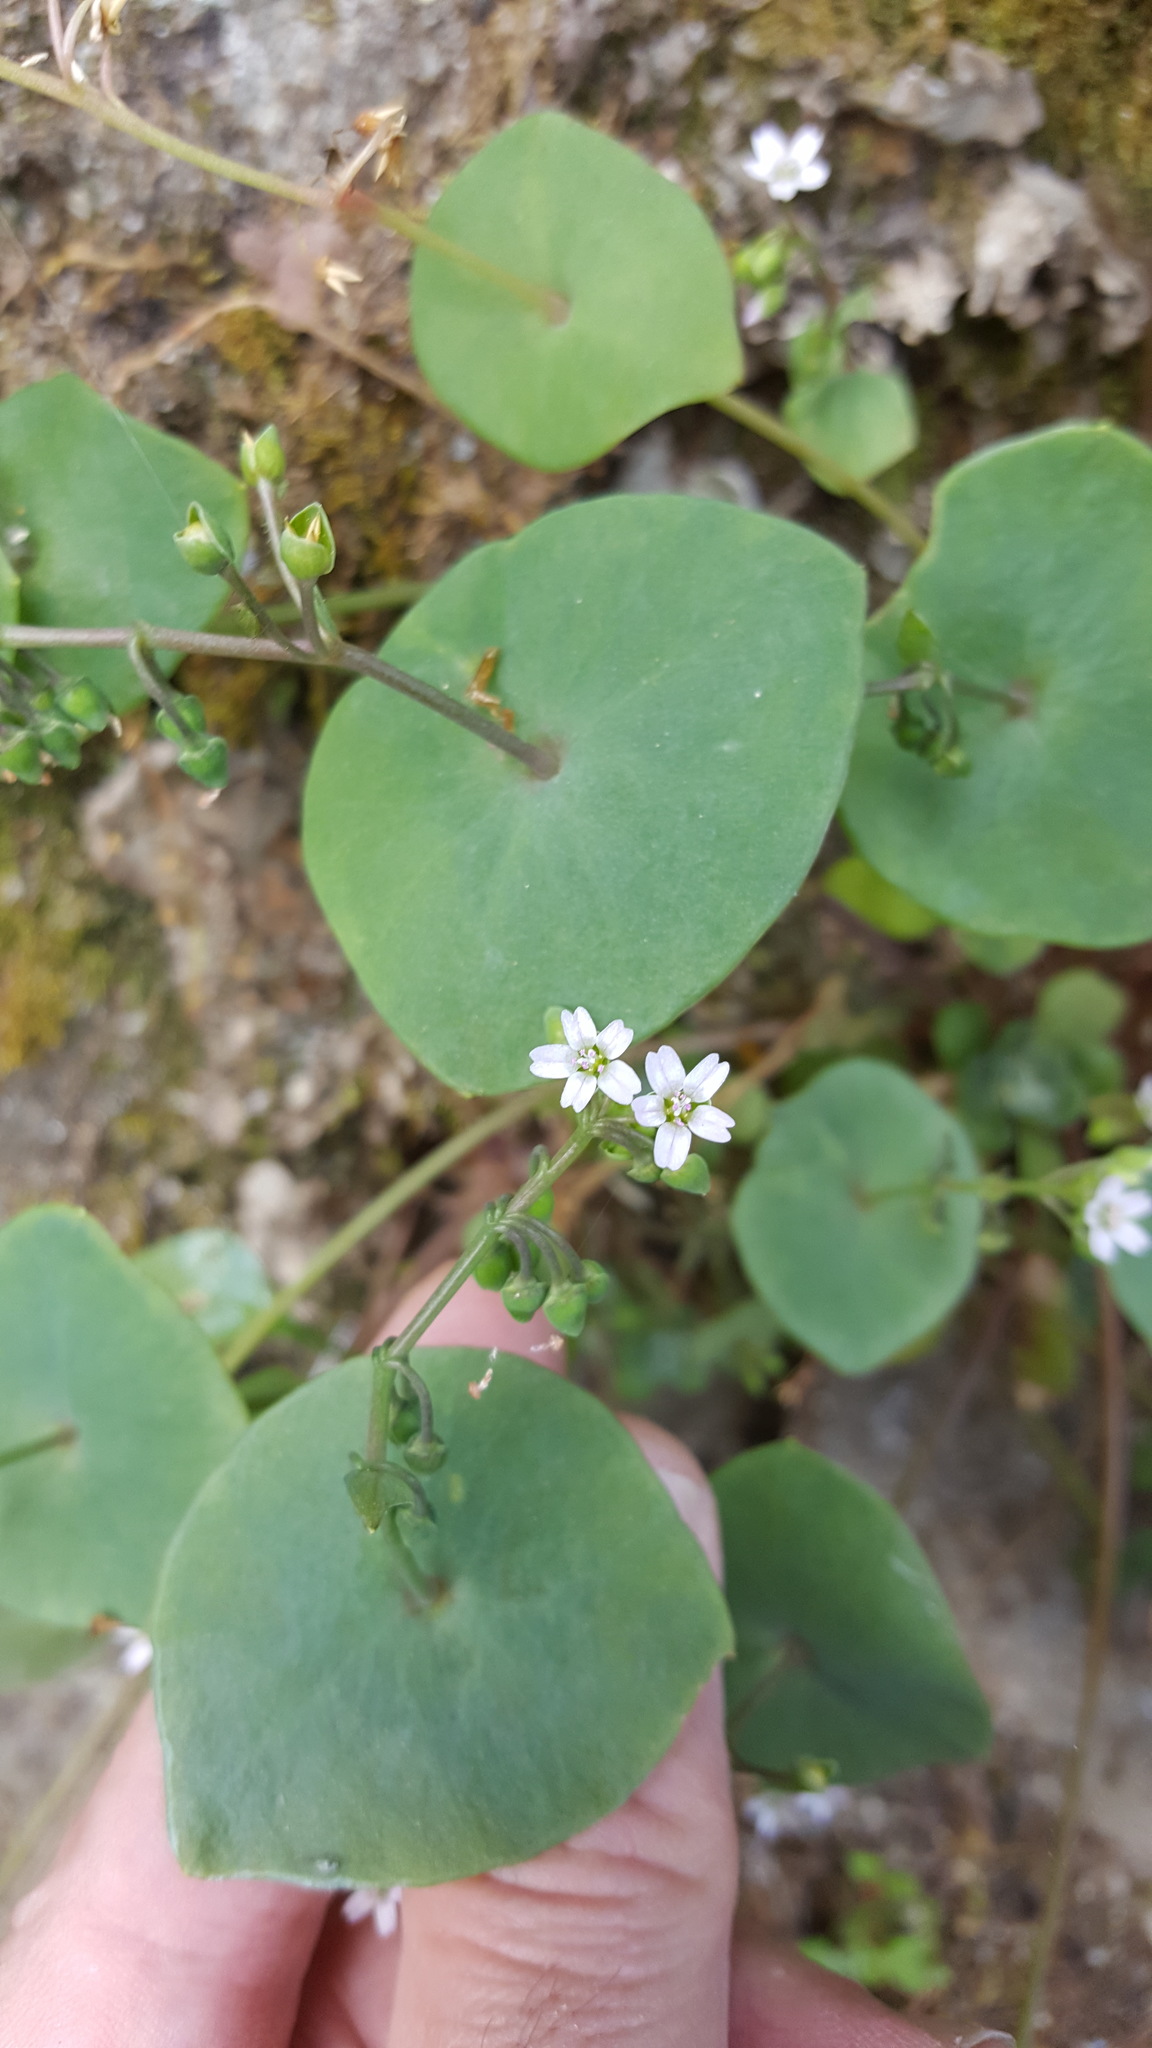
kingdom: Plantae
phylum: Tracheophyta
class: Magnoliopsida
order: Caryophyllales
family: Montiaceae
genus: Claytonia
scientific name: Claytonia perfoliata
